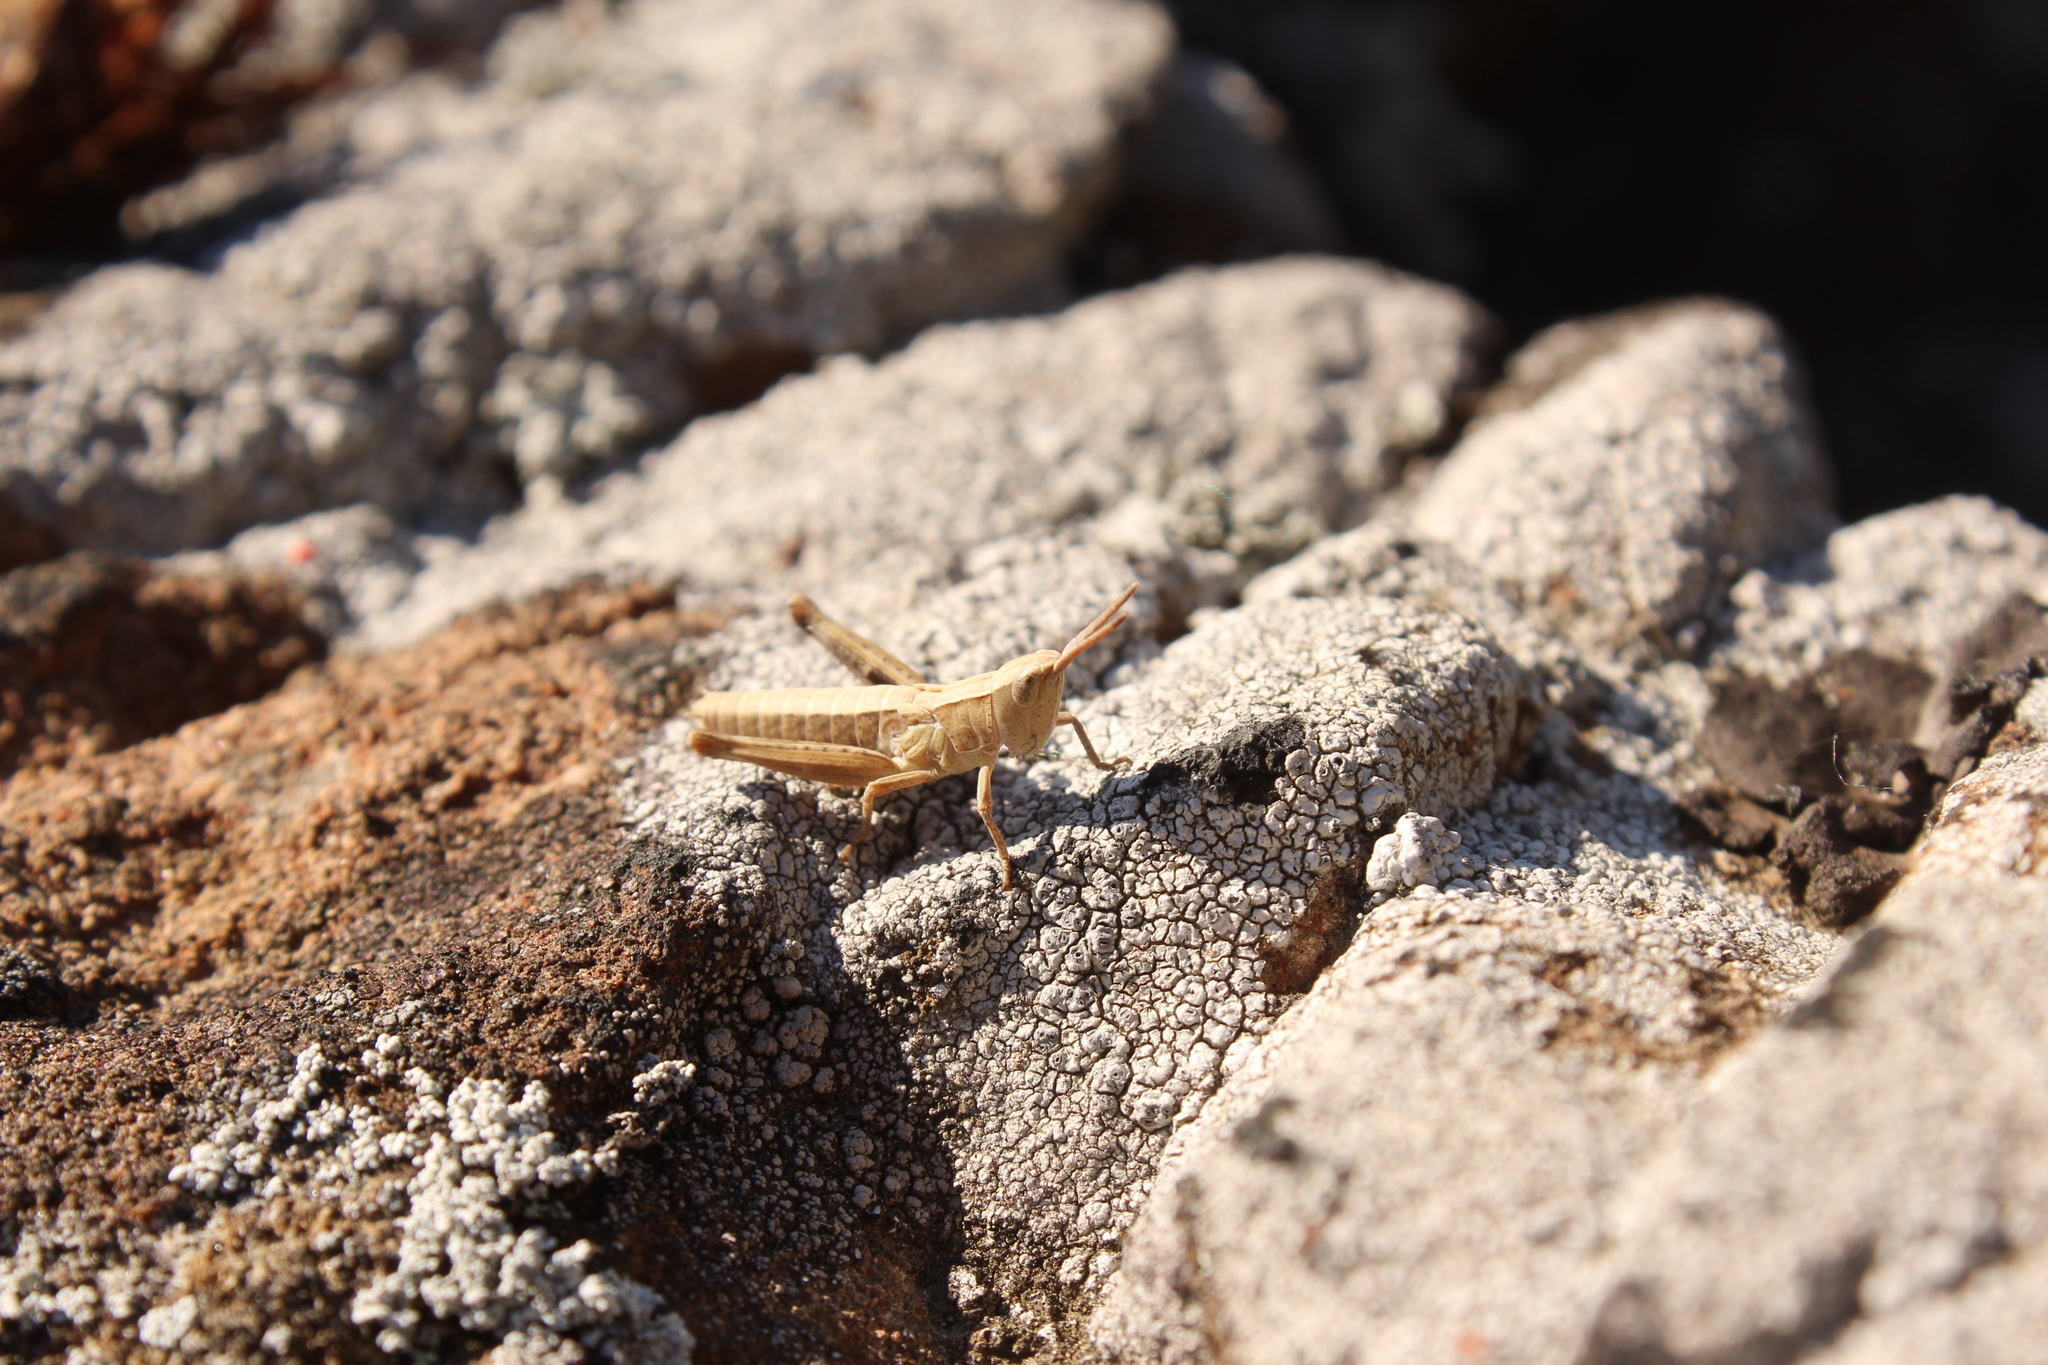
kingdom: Animalia
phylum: Arthropoda
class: Insecta
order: Orthoptera
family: Acrididae
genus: Chloealtis
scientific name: Chloealtis conspersa
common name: Sprinkled broad-winged grasshopper
